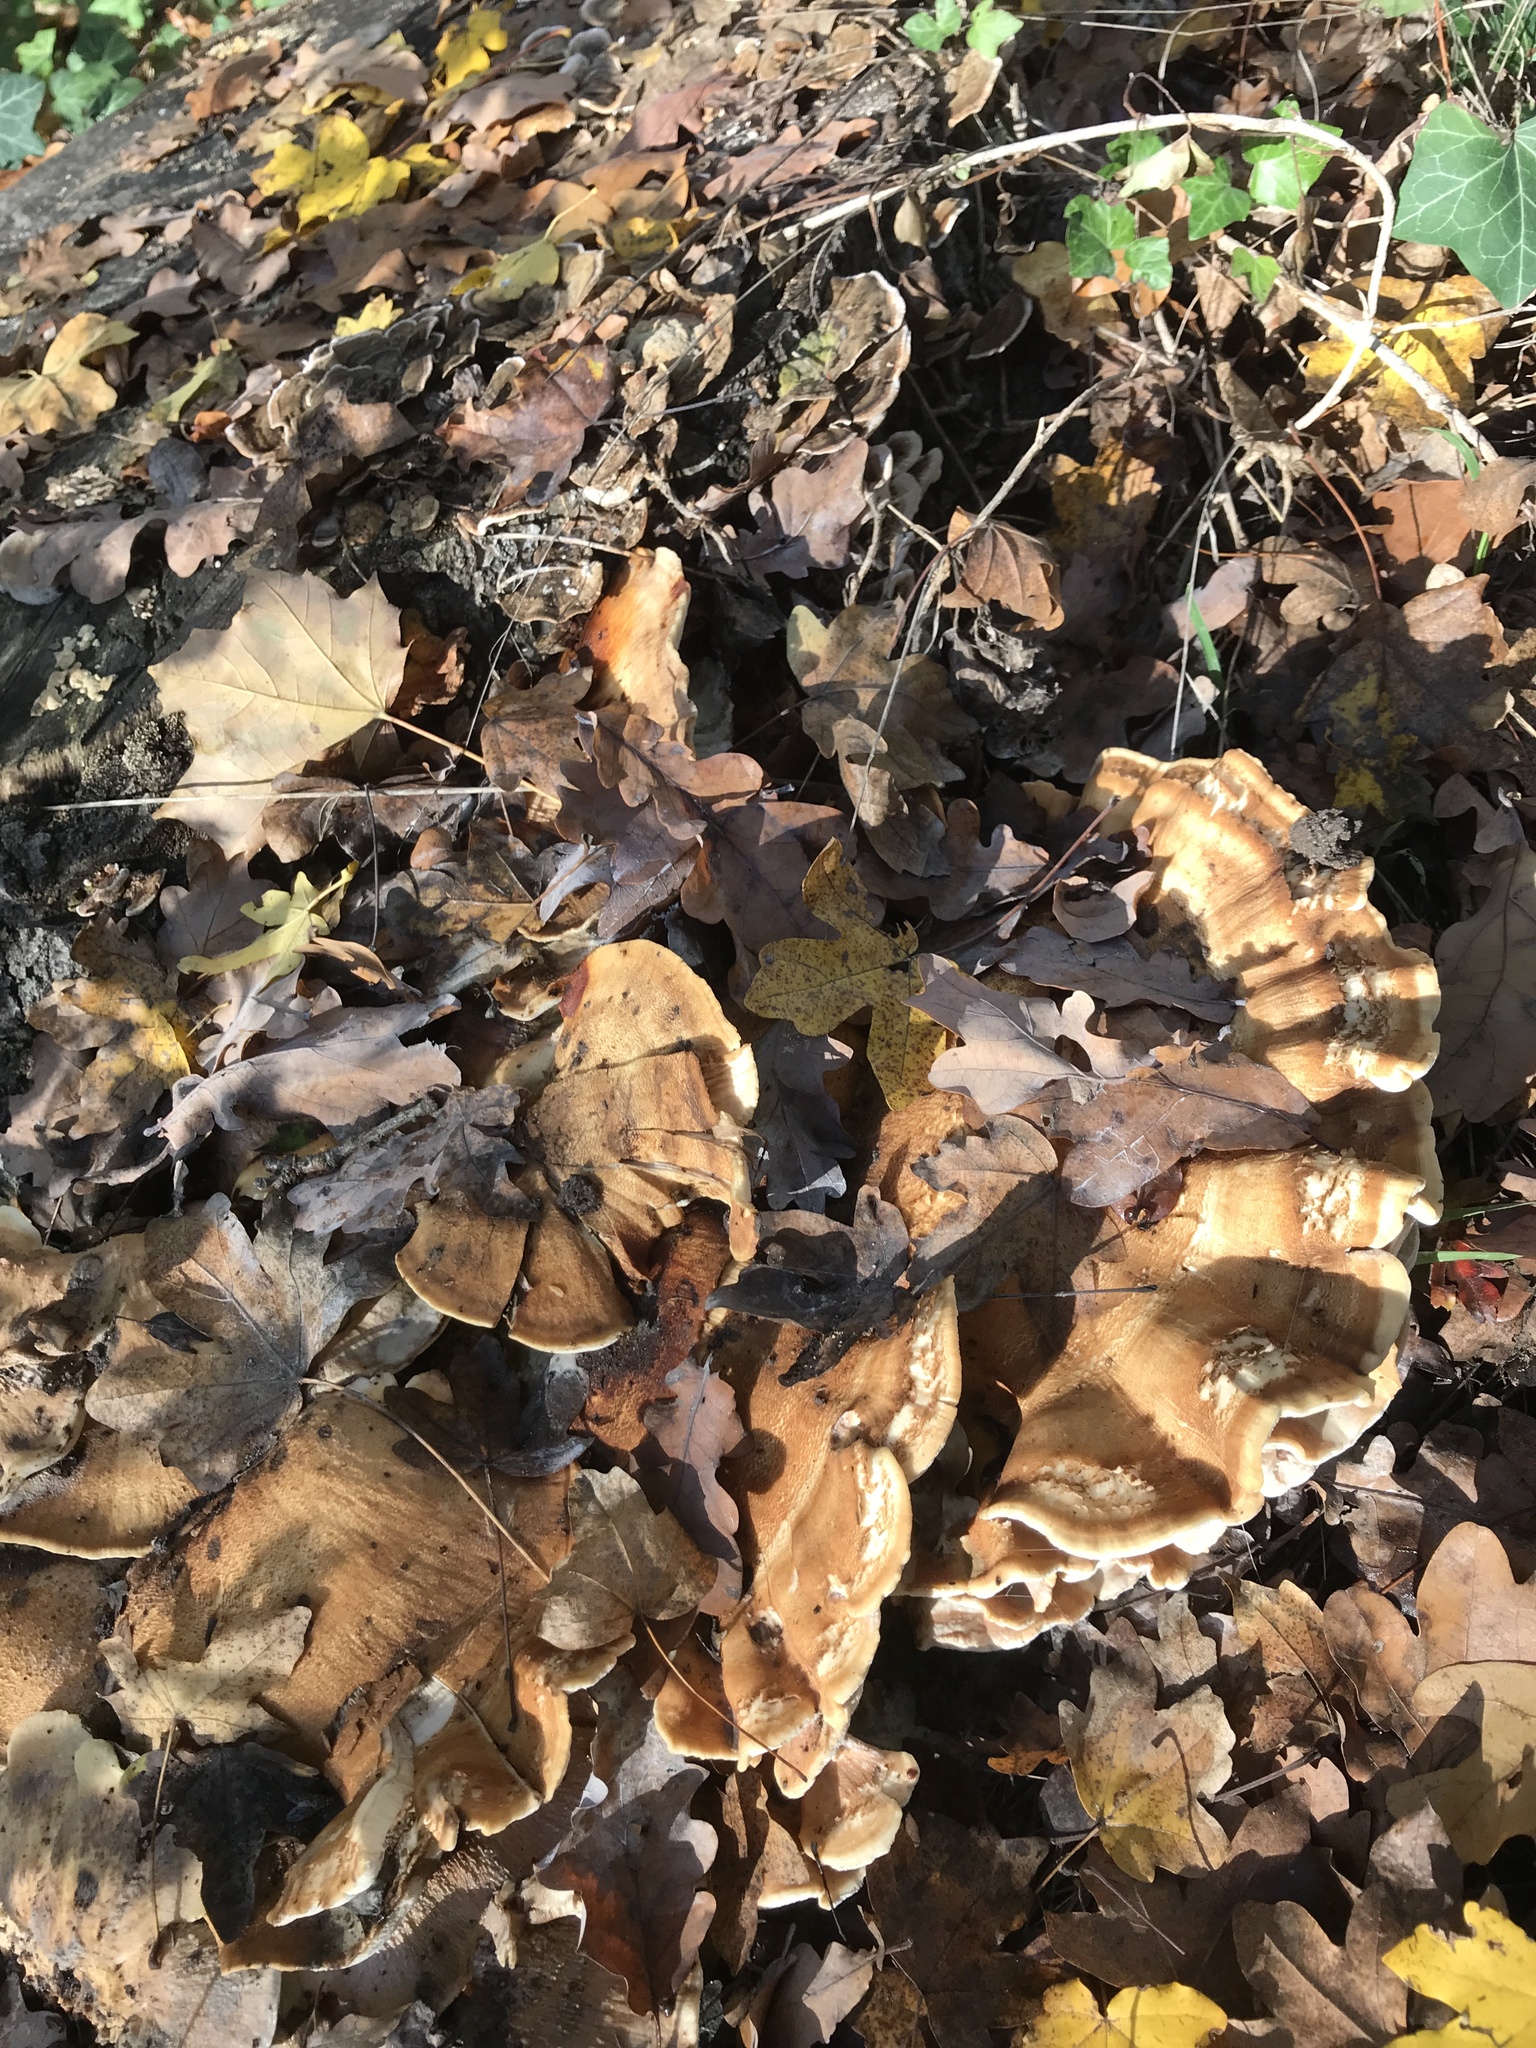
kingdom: Fungi
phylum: Basidiomycota
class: Agaricomycetes
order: Polyporales
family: Meripilaceae
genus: Meripilus
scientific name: Meripilus giganteus
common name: Giant polypore
